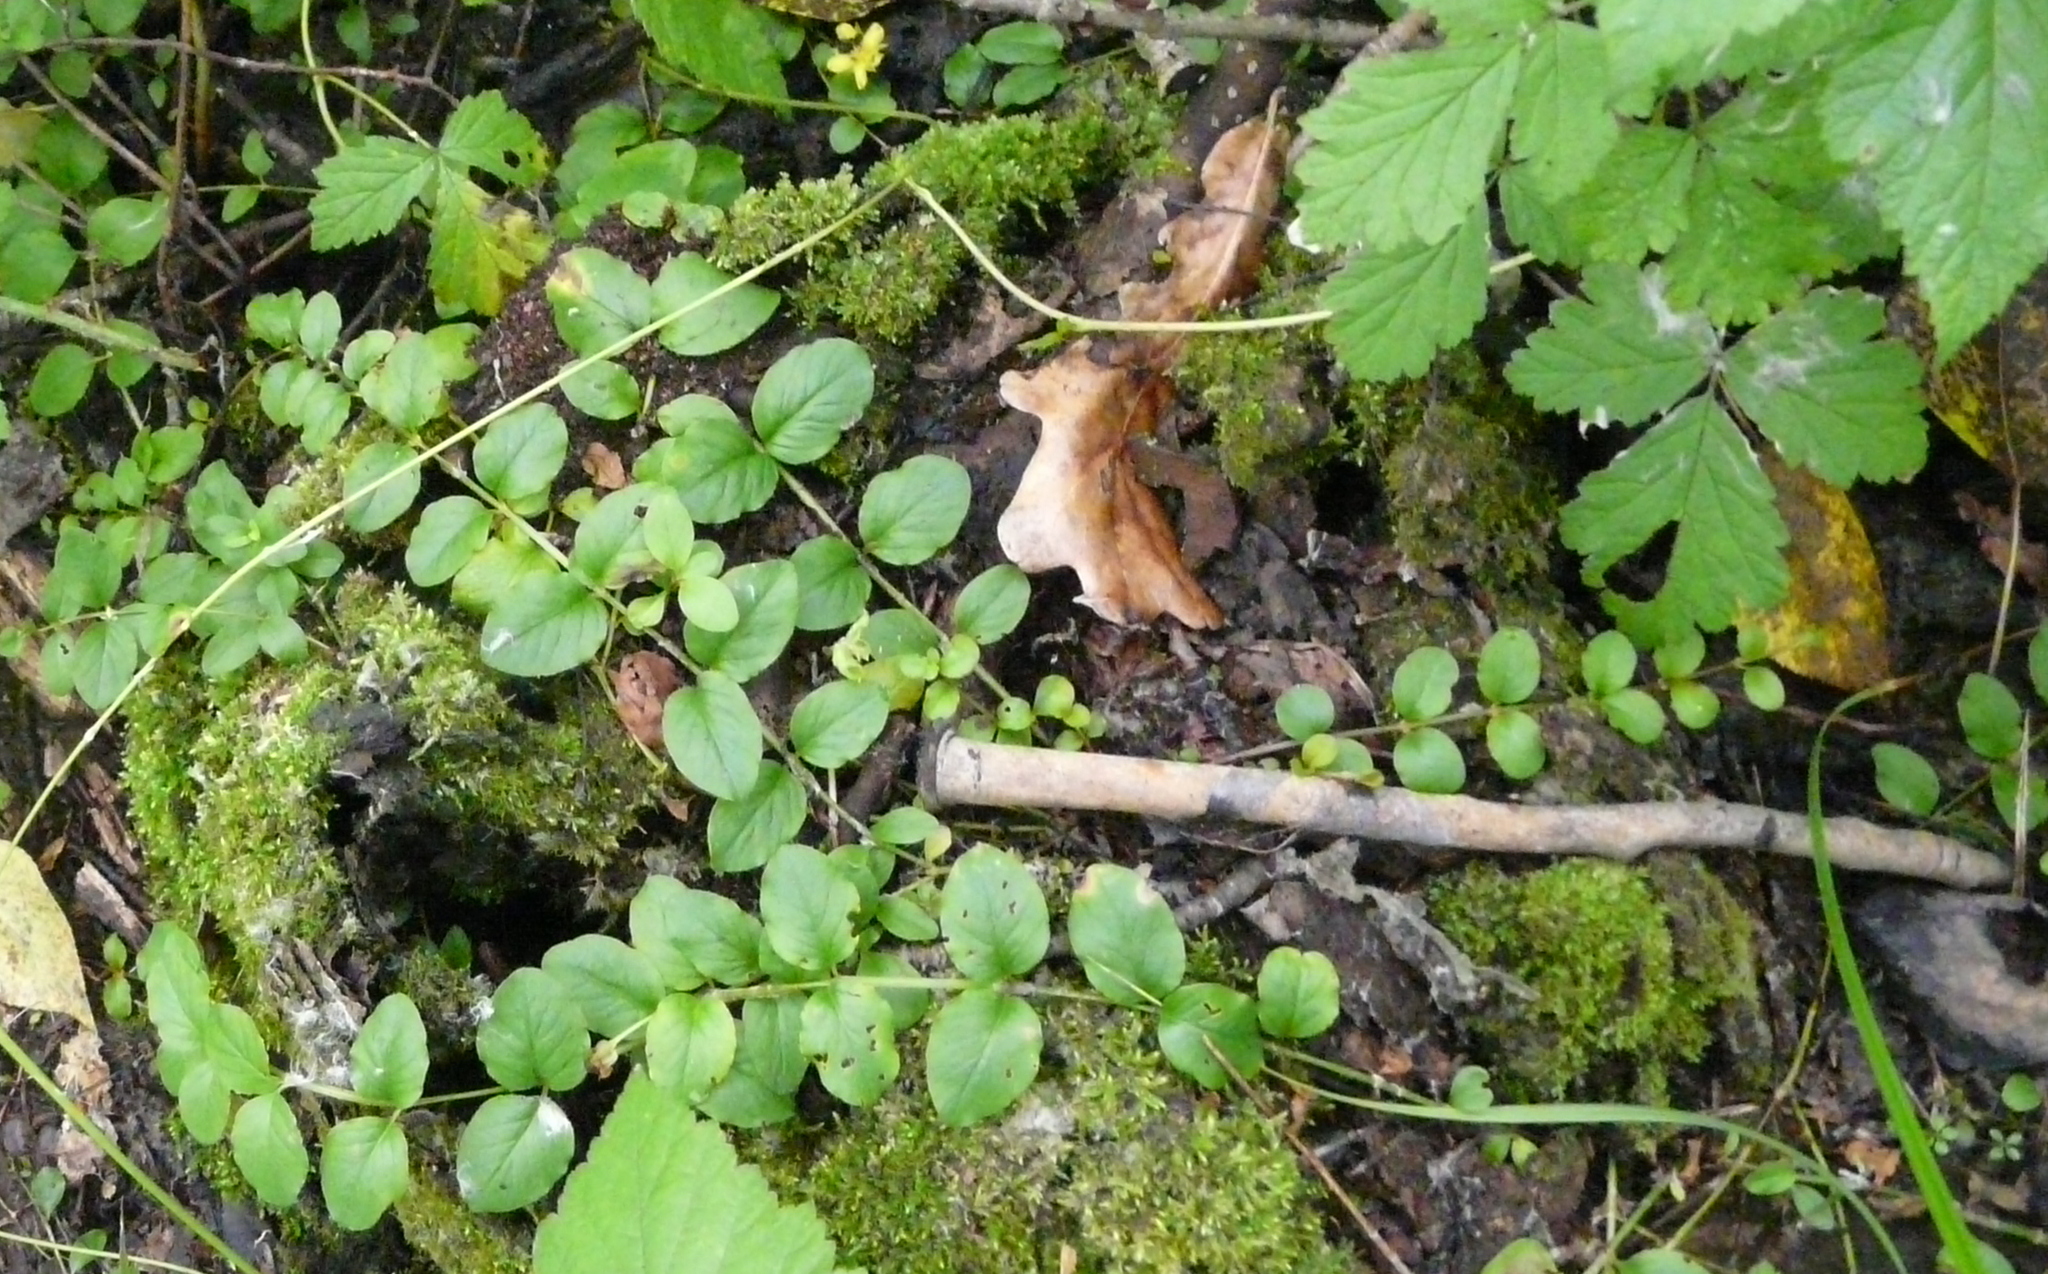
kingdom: Plantae
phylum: Tracheophyta
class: Magnoliopsida
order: Ericales
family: Primulaceae
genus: Lysimachia
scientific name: Lysimachia nummularia
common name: Moneywort
